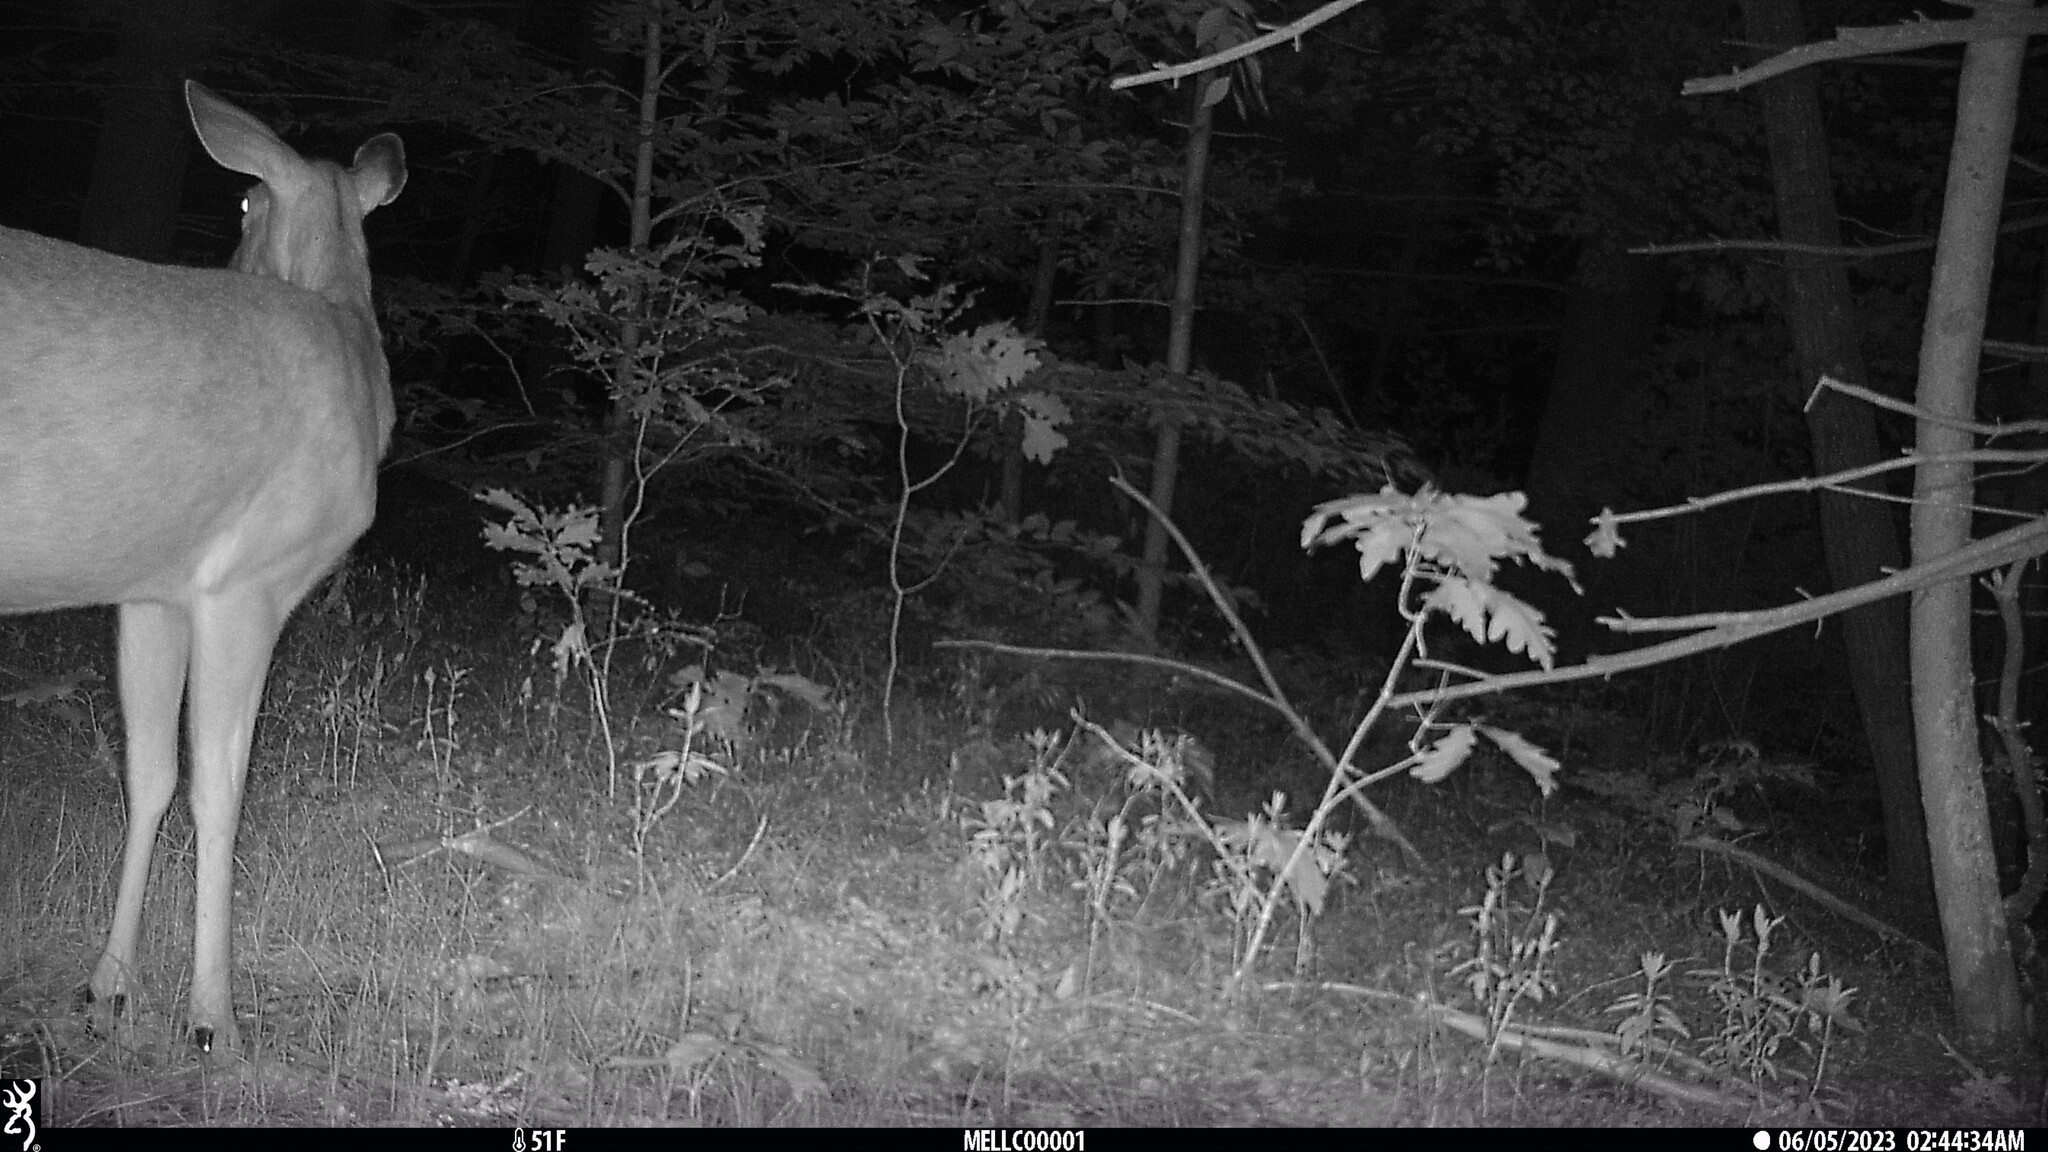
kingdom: Animalia
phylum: Chordata
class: Mammalia
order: Artiodactyla
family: Cervidae
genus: Odocoileus
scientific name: Odocoileus virginianus
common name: White-tailed deer
